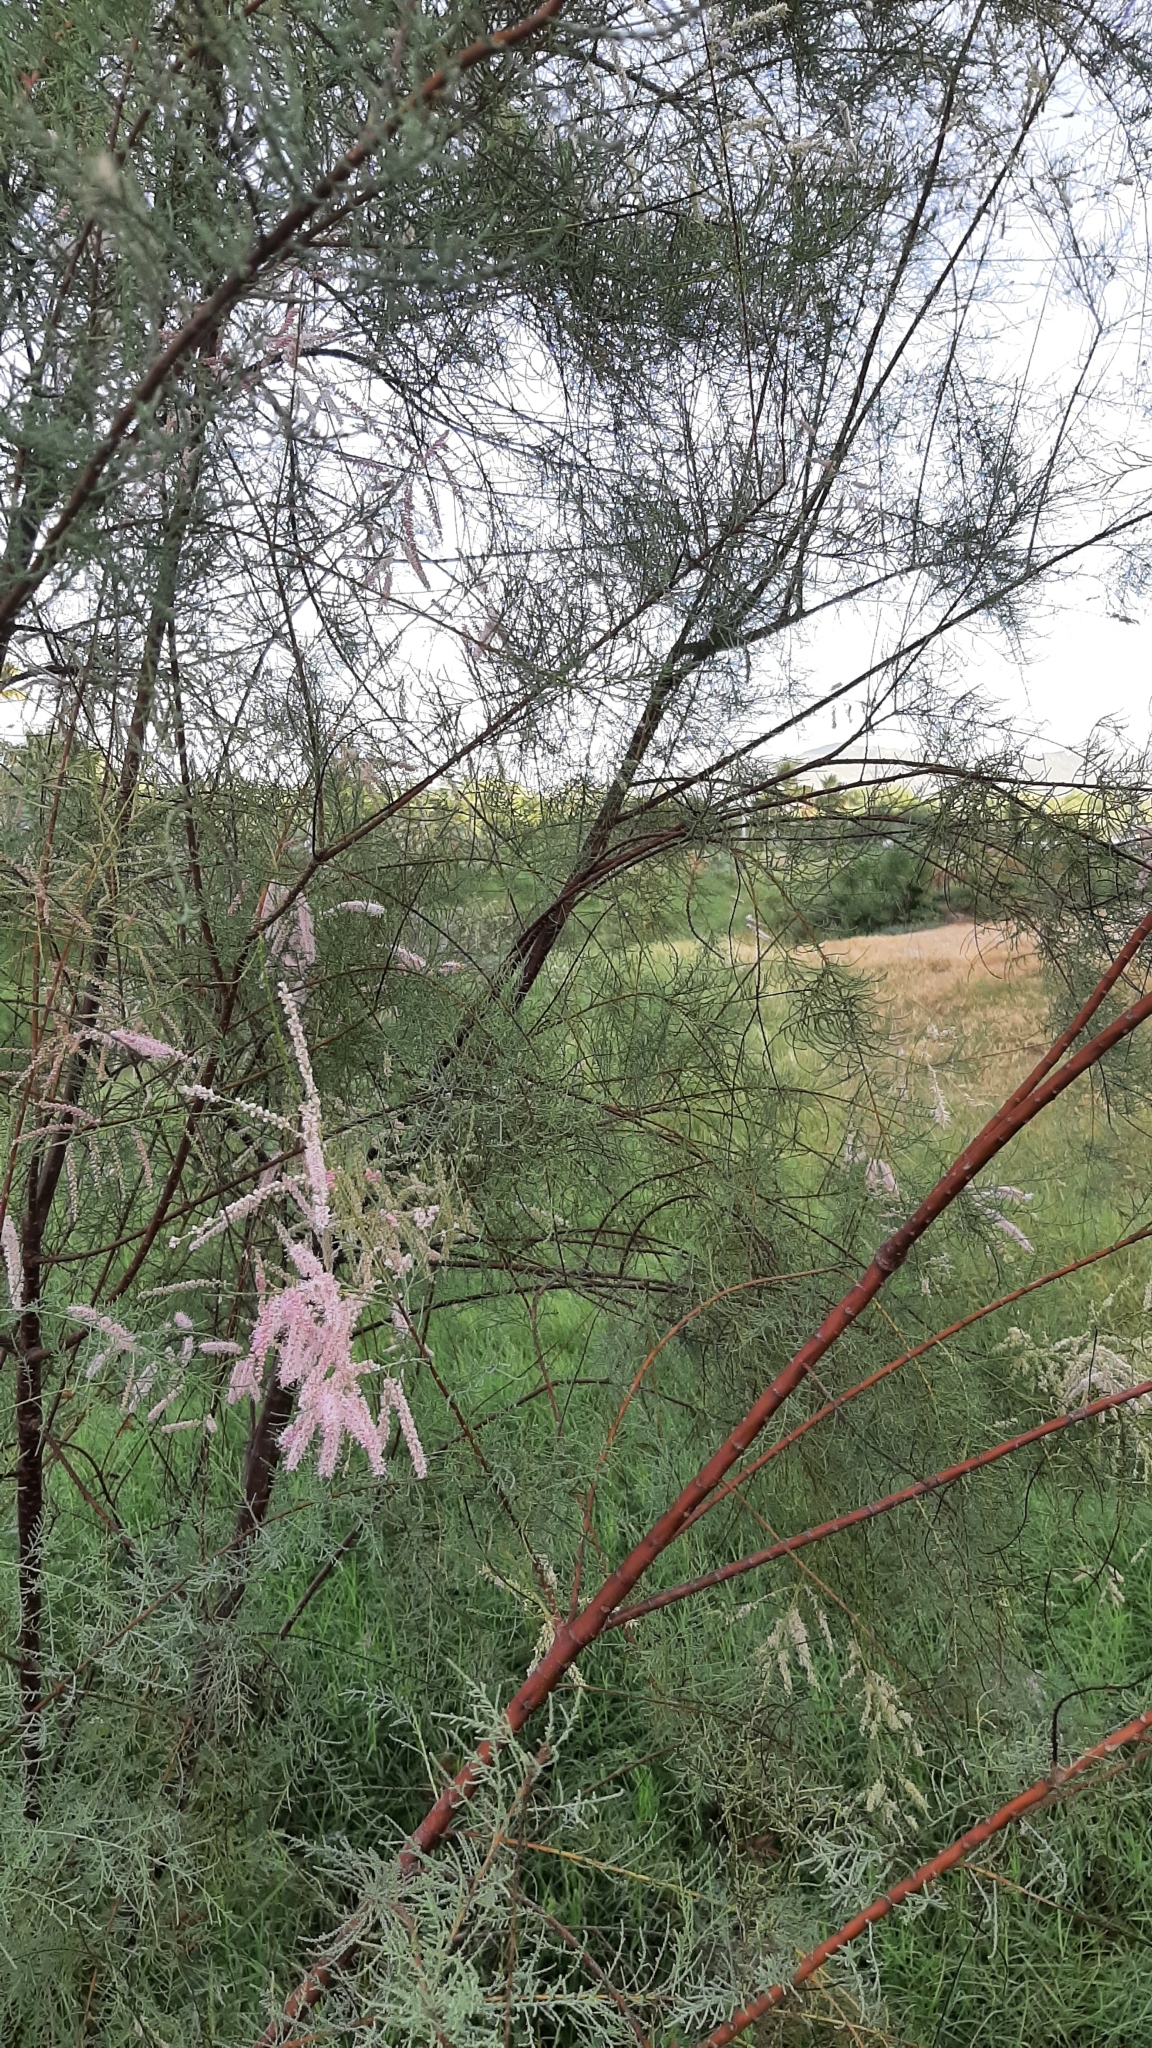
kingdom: Plantae
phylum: Tracheophyta
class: Magnoliopsida
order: Caryophyllales
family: Tamaricaceae
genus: Tamarix
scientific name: Tamarix
